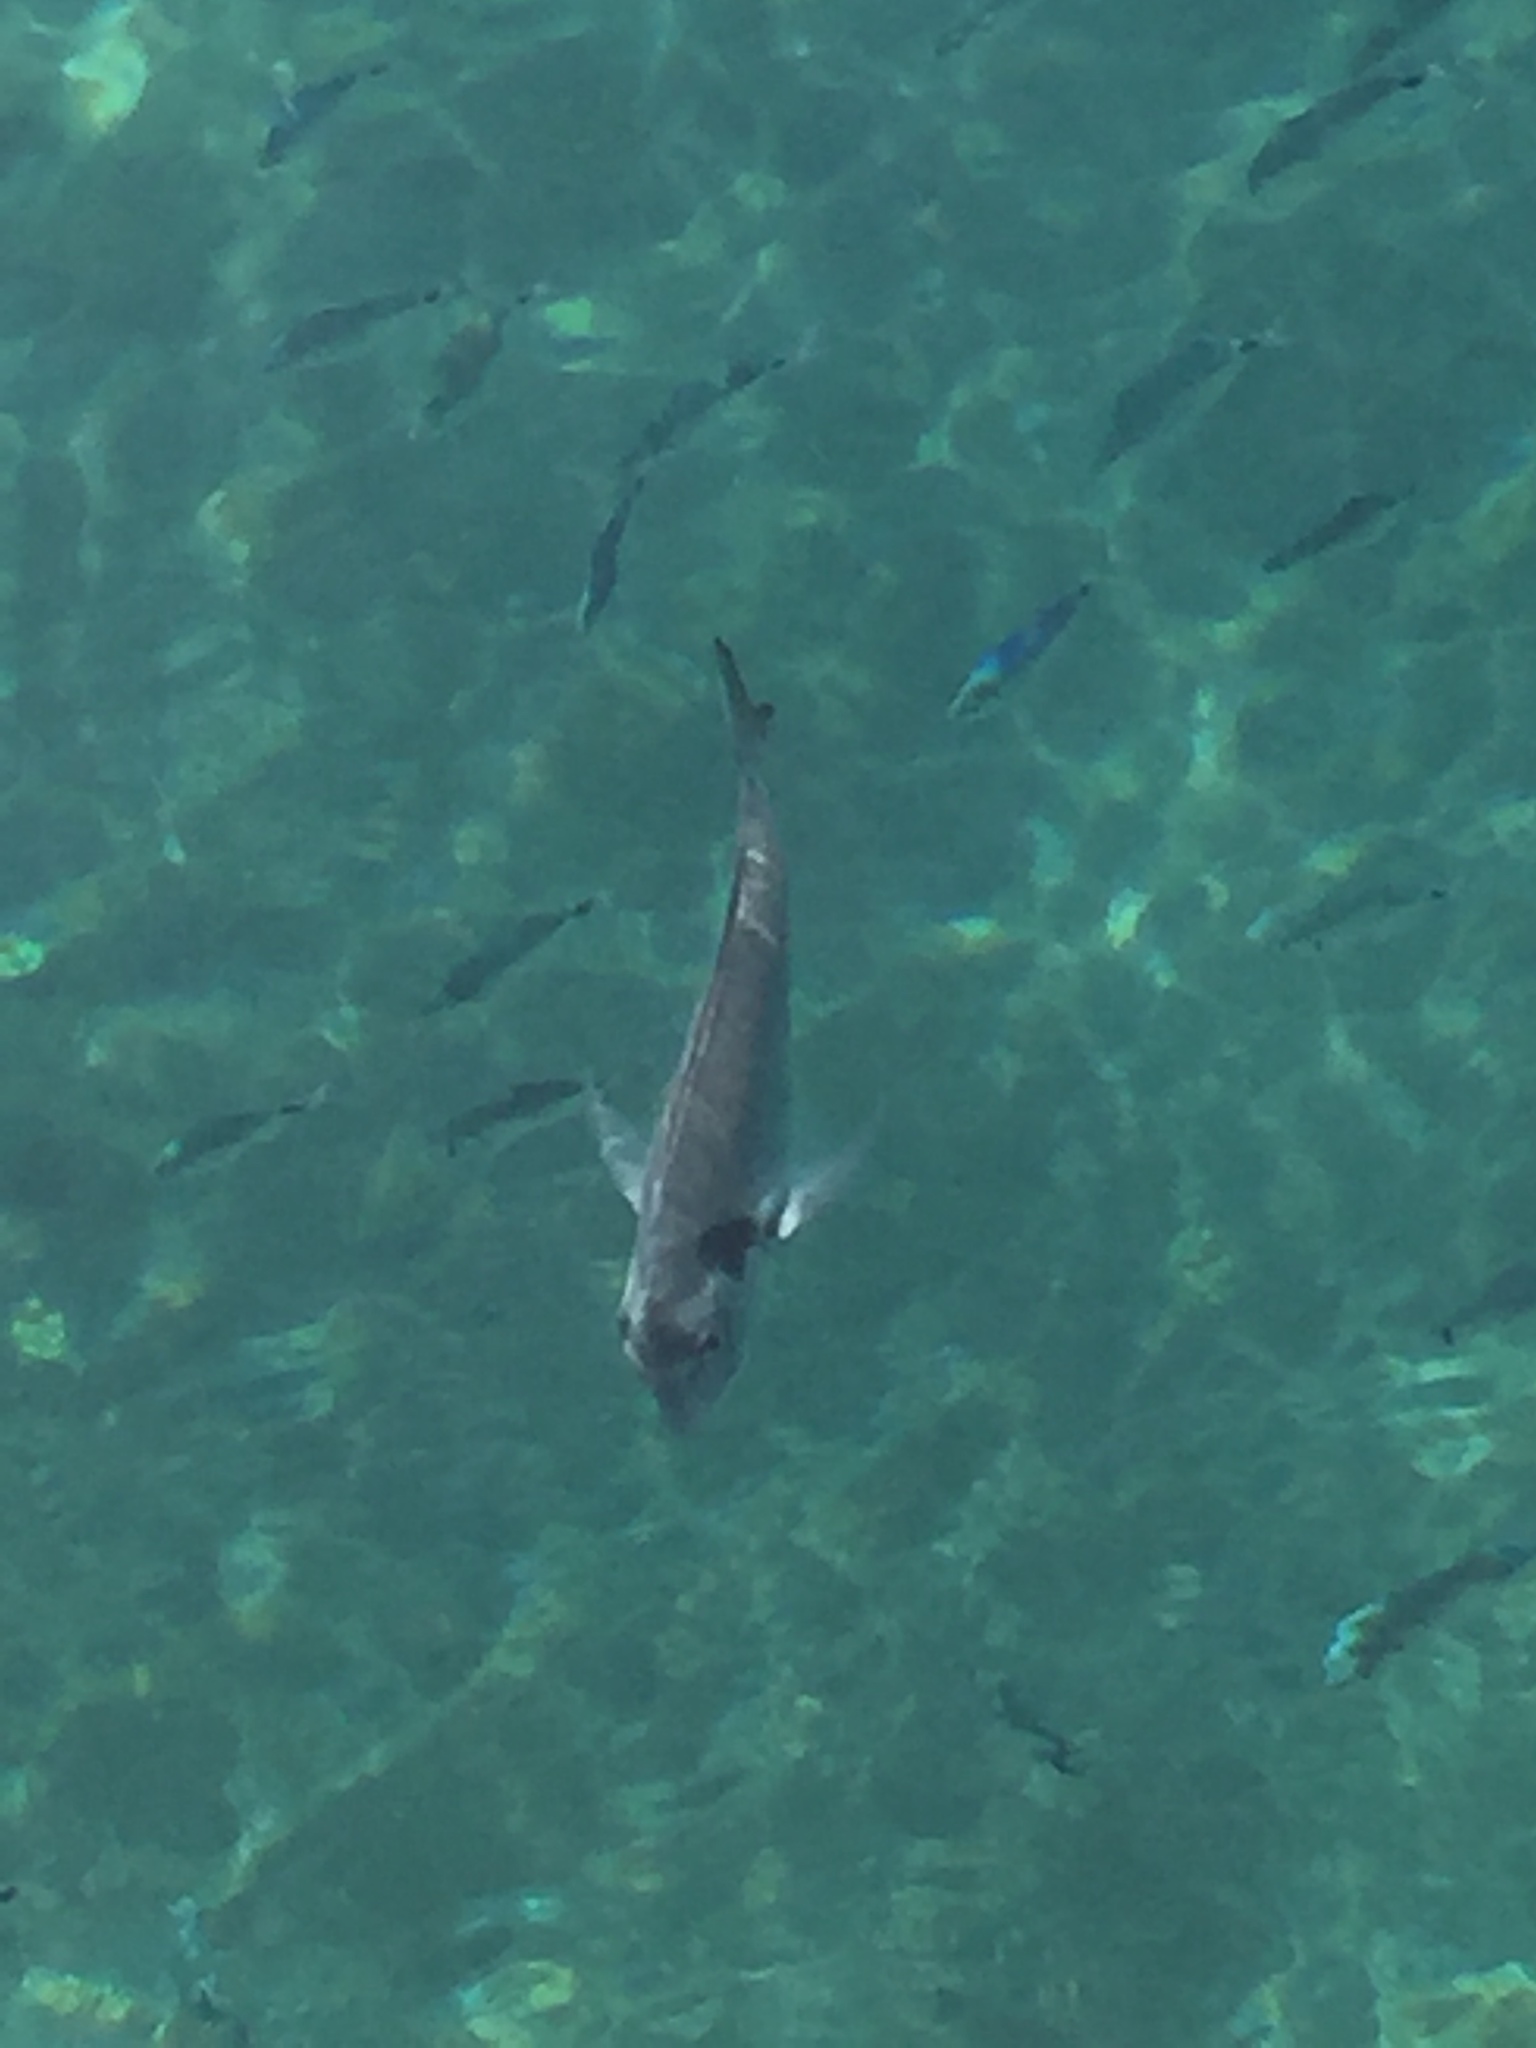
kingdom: Animalia
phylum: Chordata
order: Perciformes
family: Sparidae
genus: Oblada
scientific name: Oblada melanura
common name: Saddled seabream
